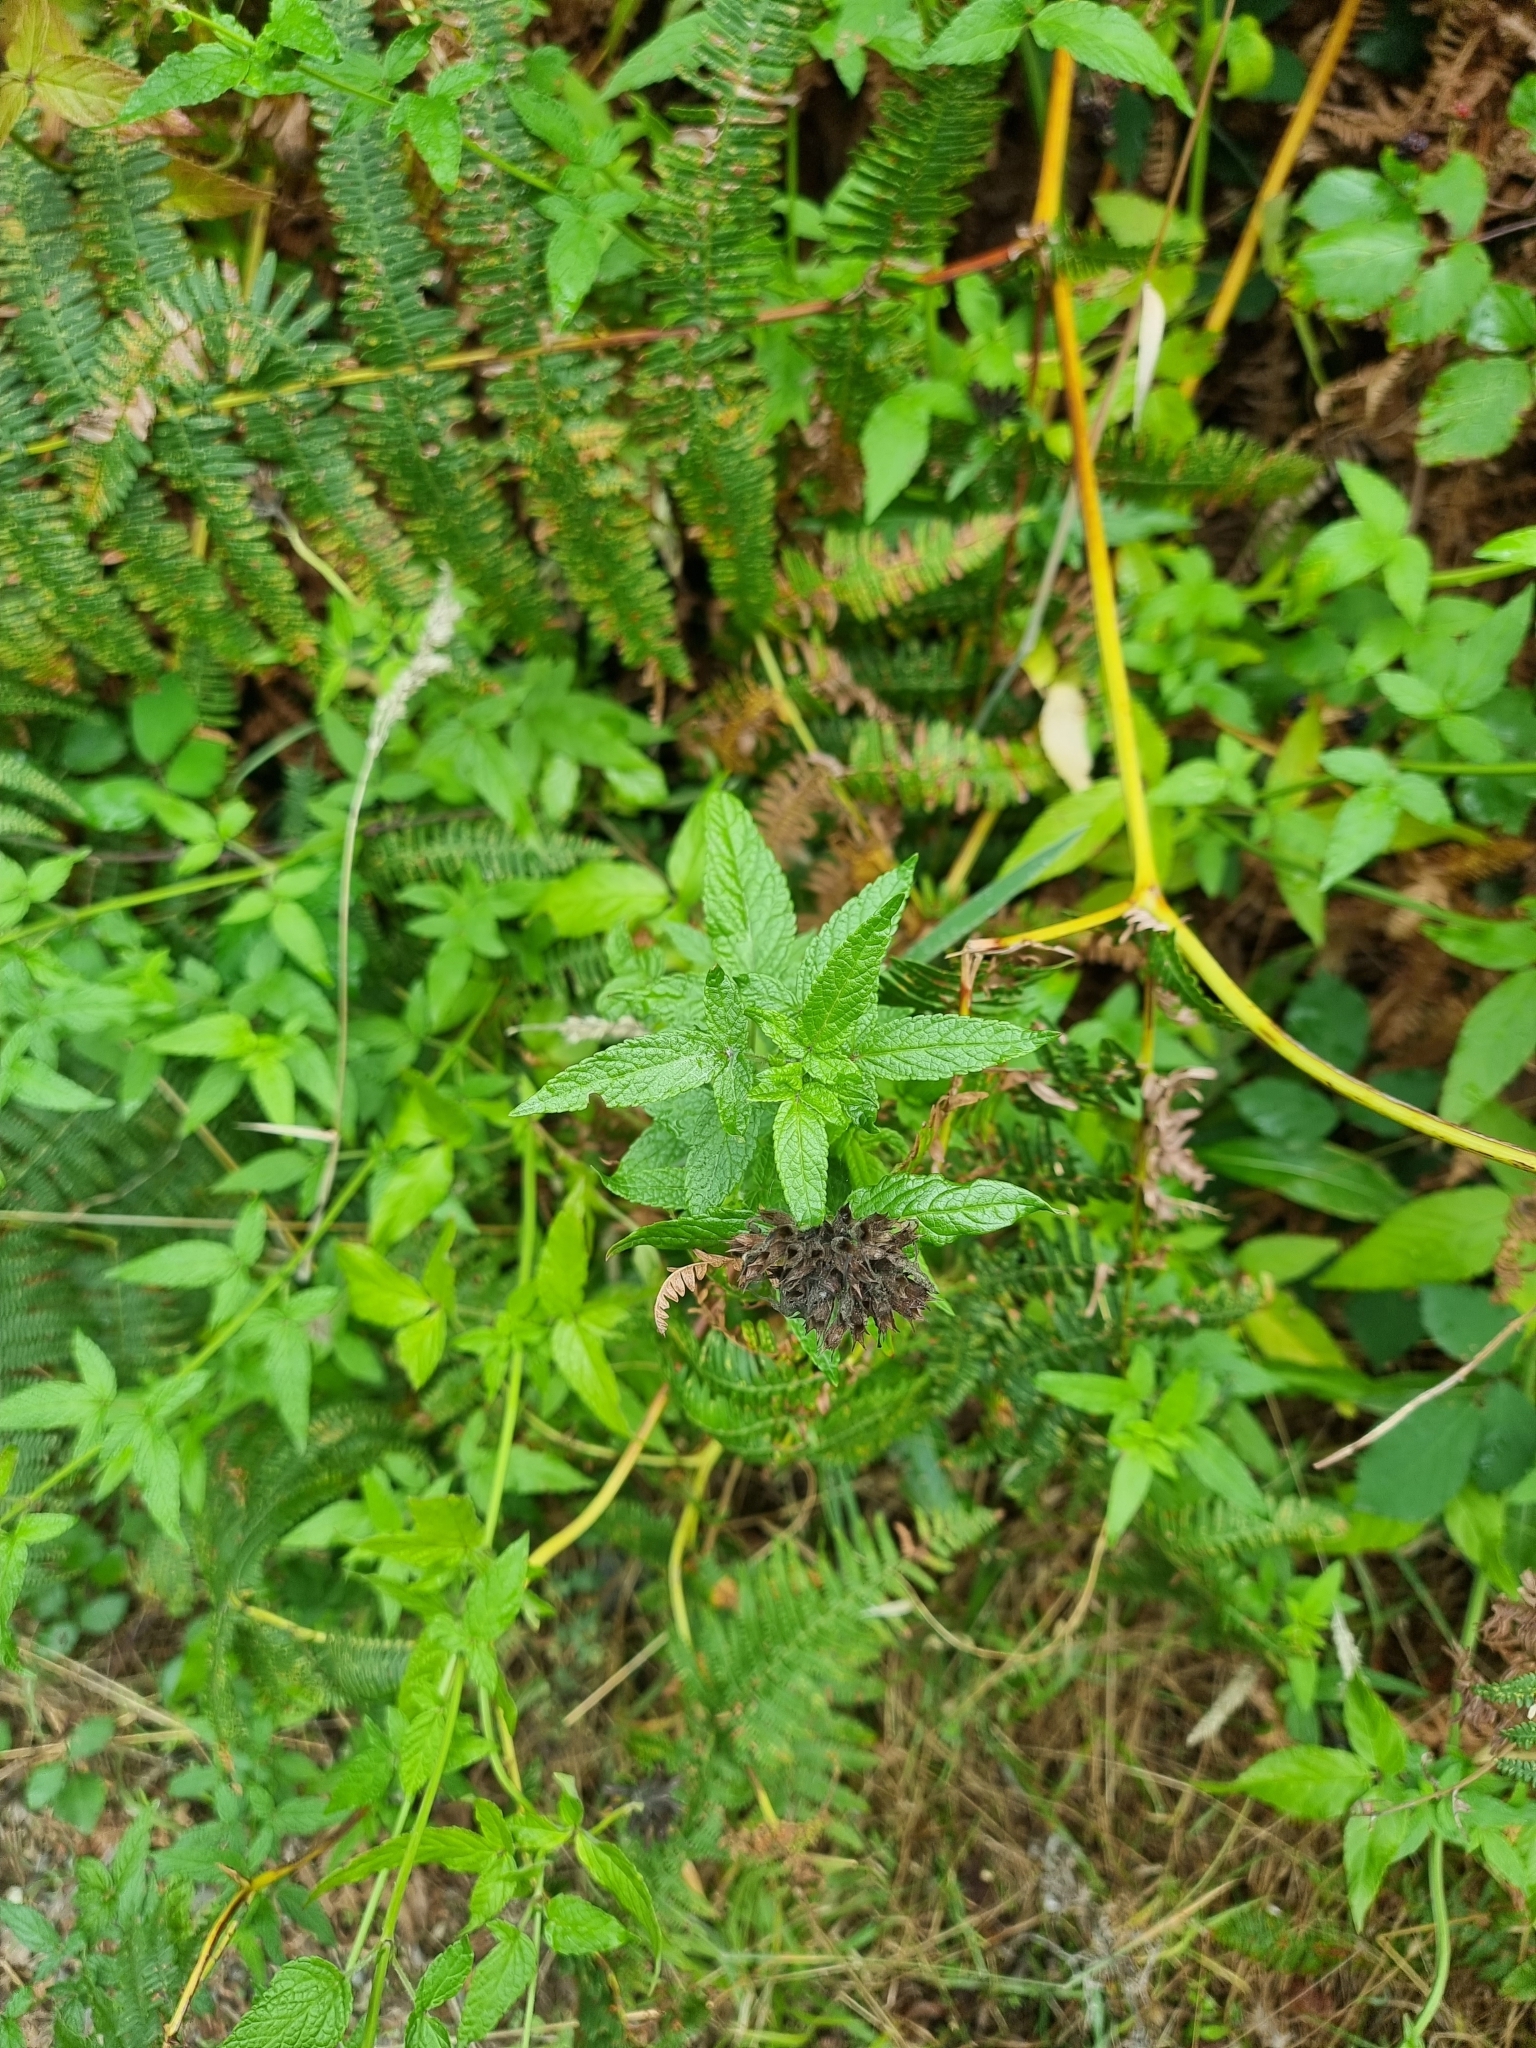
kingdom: Plantae
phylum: Tracheophyta
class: Magnoliopsida
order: Lamiales
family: Lamiaceae
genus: Cedronella
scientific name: Cedronella canariensis
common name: Canary islands balm
